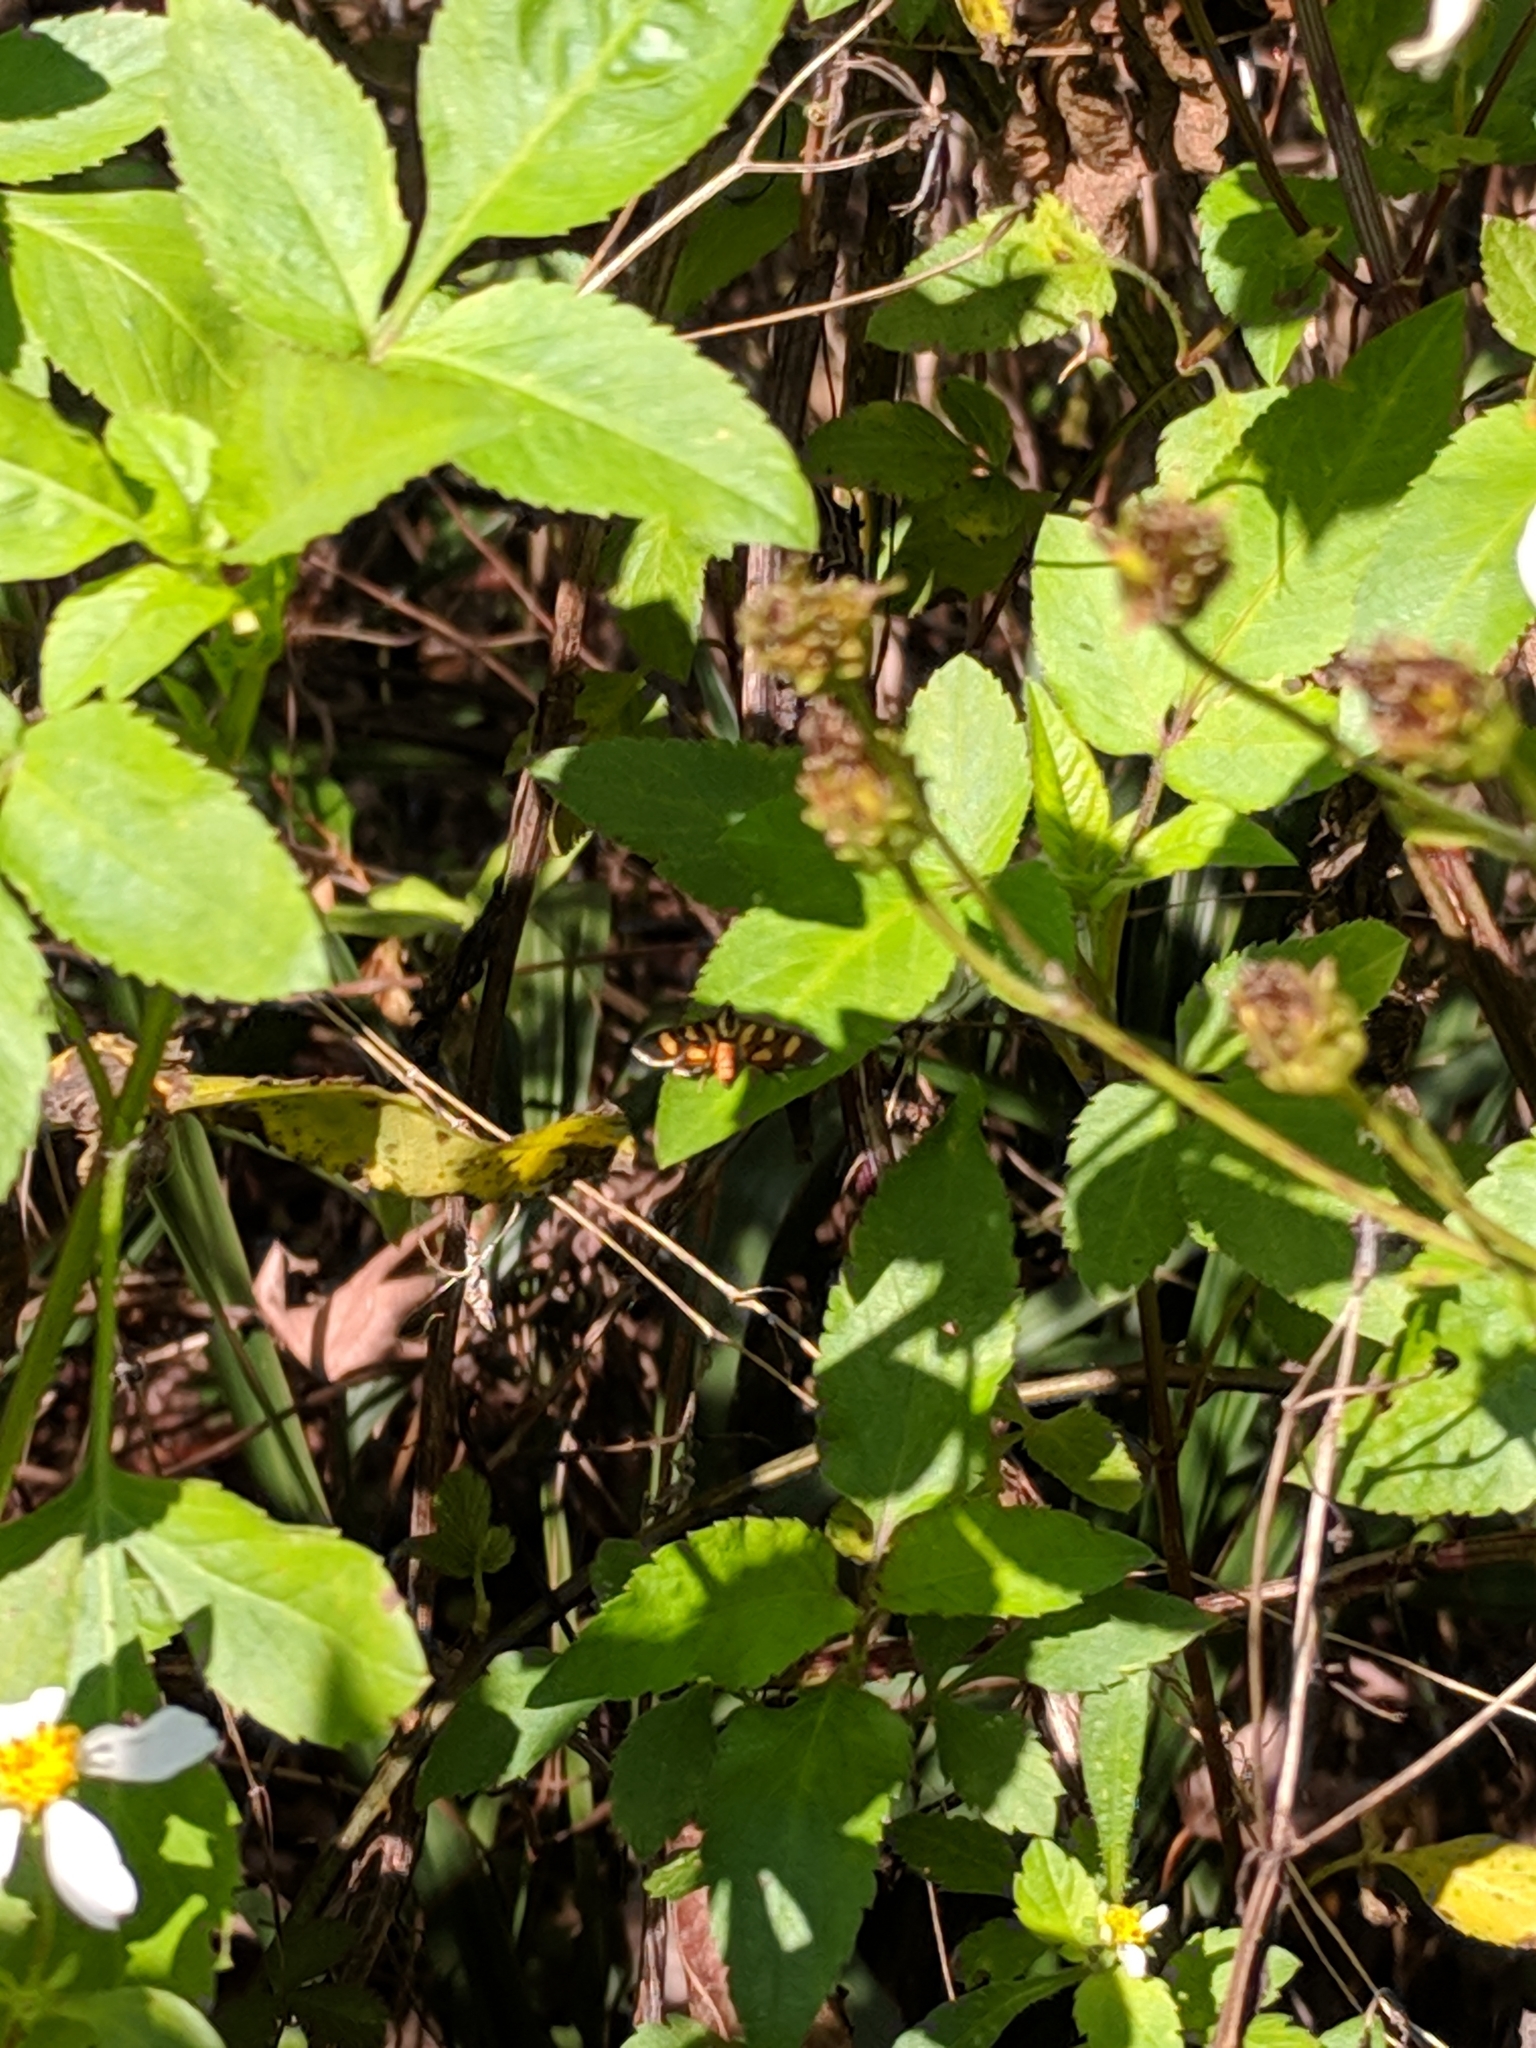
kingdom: Animalia
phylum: Arthropoda
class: Insecta
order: Lepidoptera
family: Crambidae
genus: Syngamia
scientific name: Syngamia florella
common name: Orange-spotted flower moth
